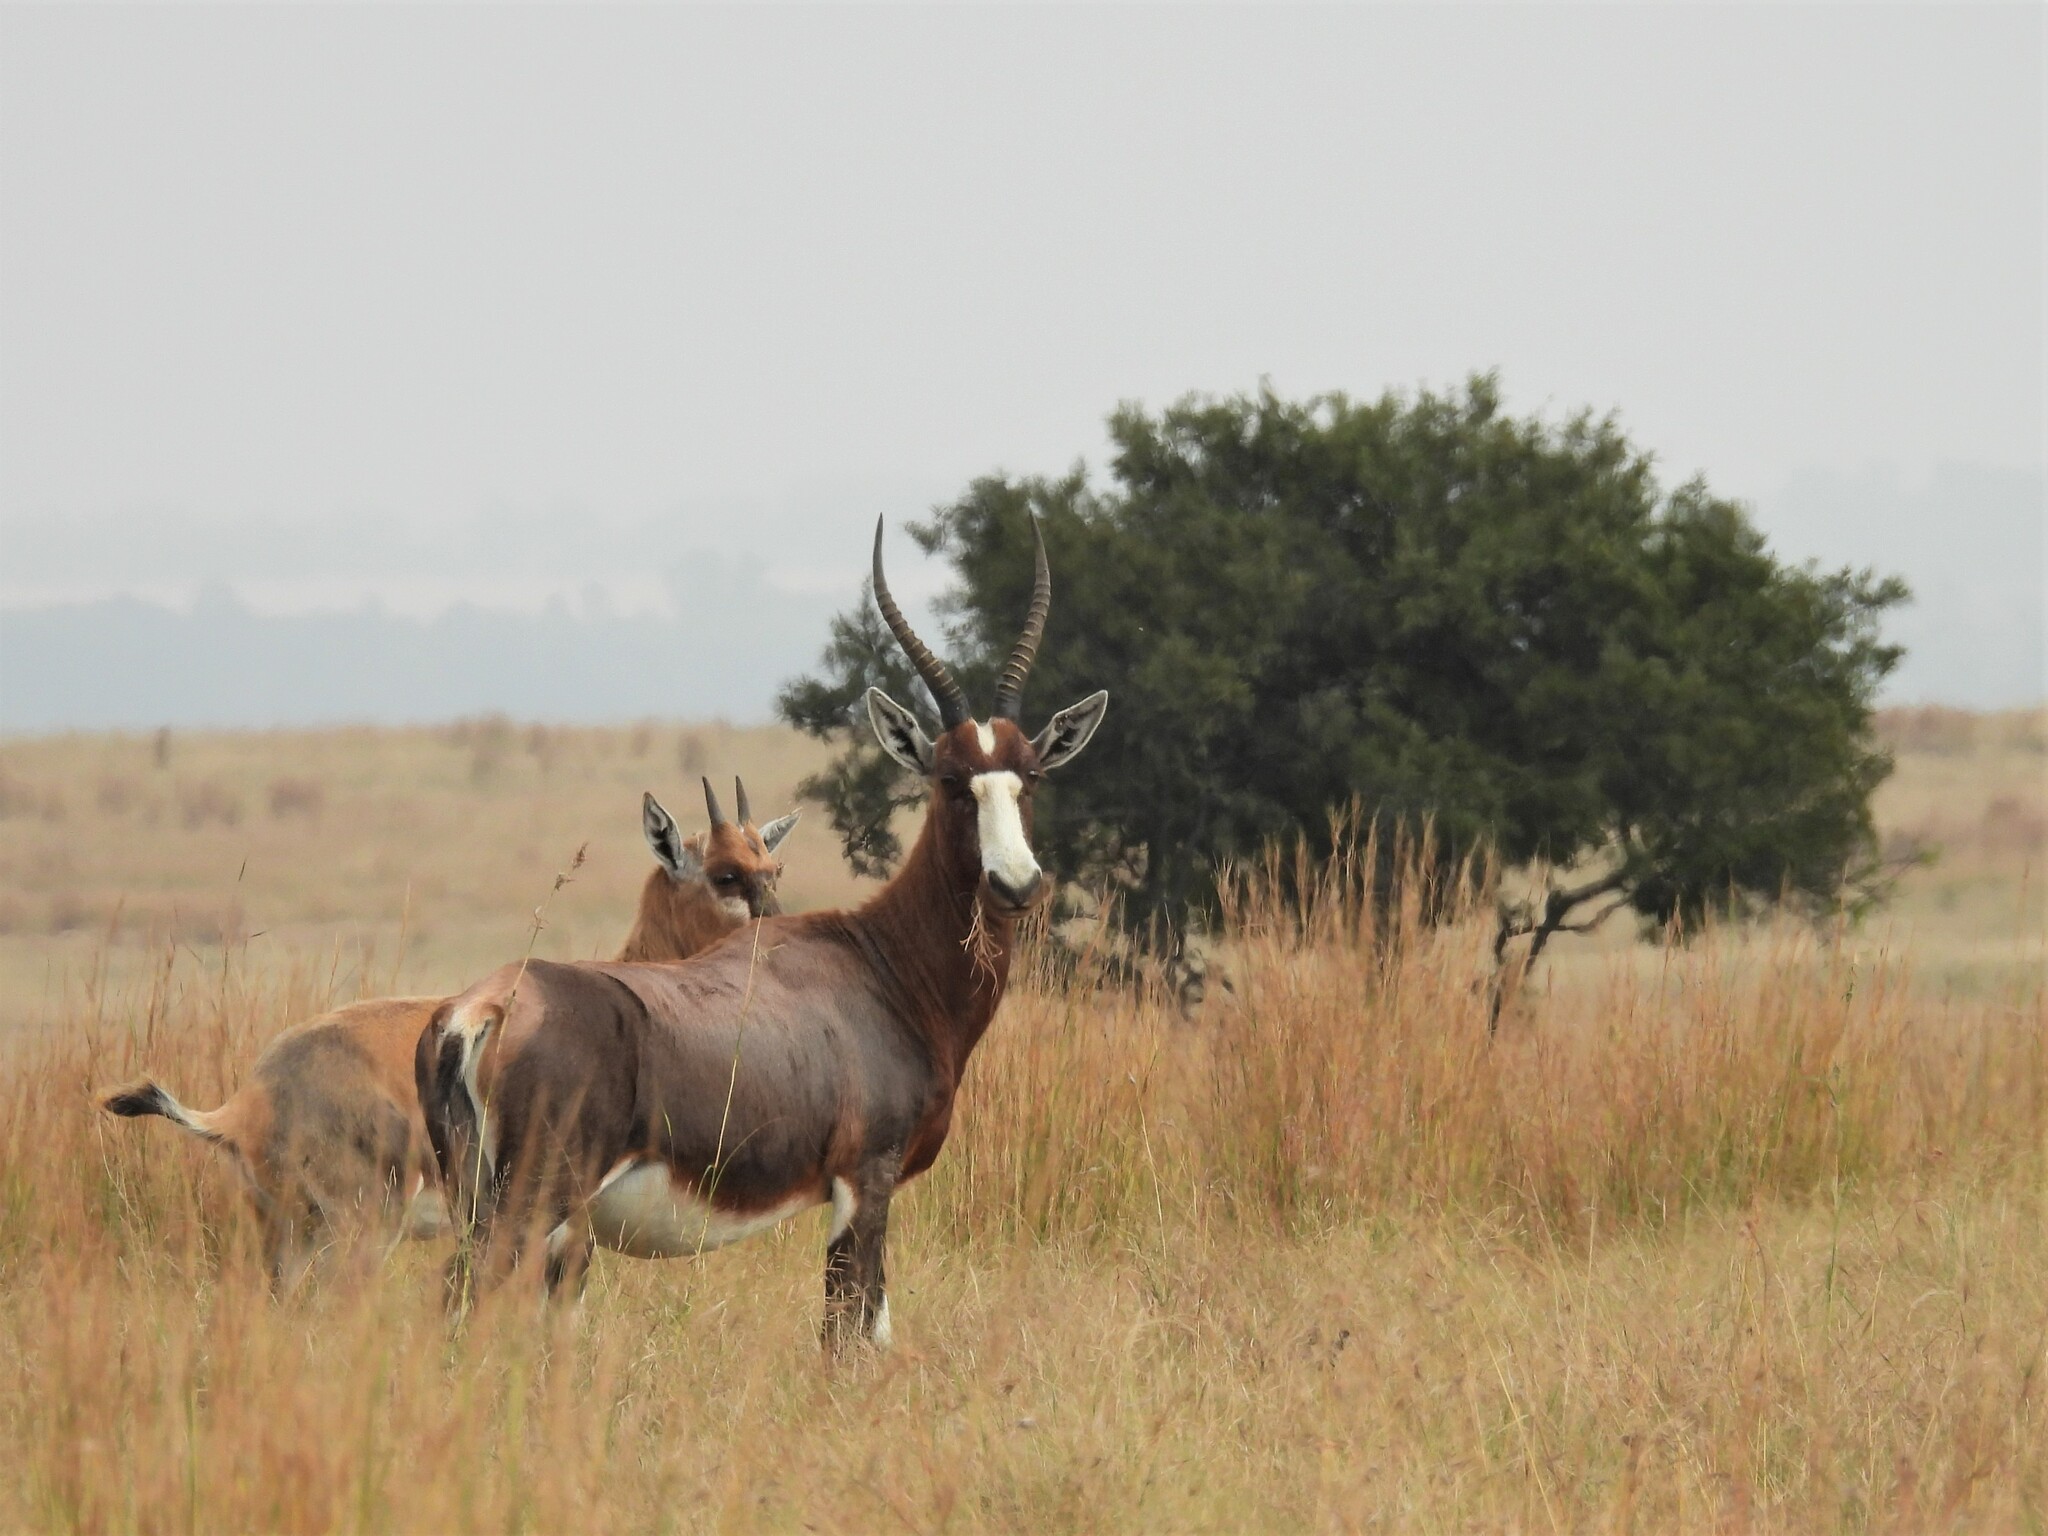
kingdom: Animalia
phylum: Chordata
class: Mammalia
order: Artiodactyla
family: Bovidae
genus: Damaliscus
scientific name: Damaliscus pygargus
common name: Bontebok
